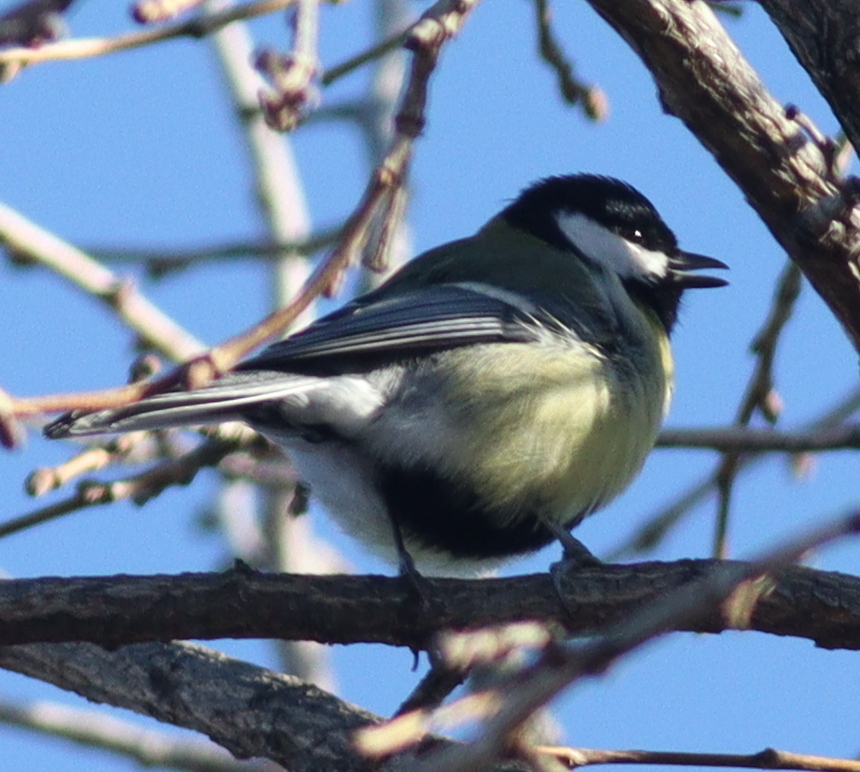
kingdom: Animalia
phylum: Chordata
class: Aves
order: Passeriformes
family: Paridae
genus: Parus
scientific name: Parus major
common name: Great tit
